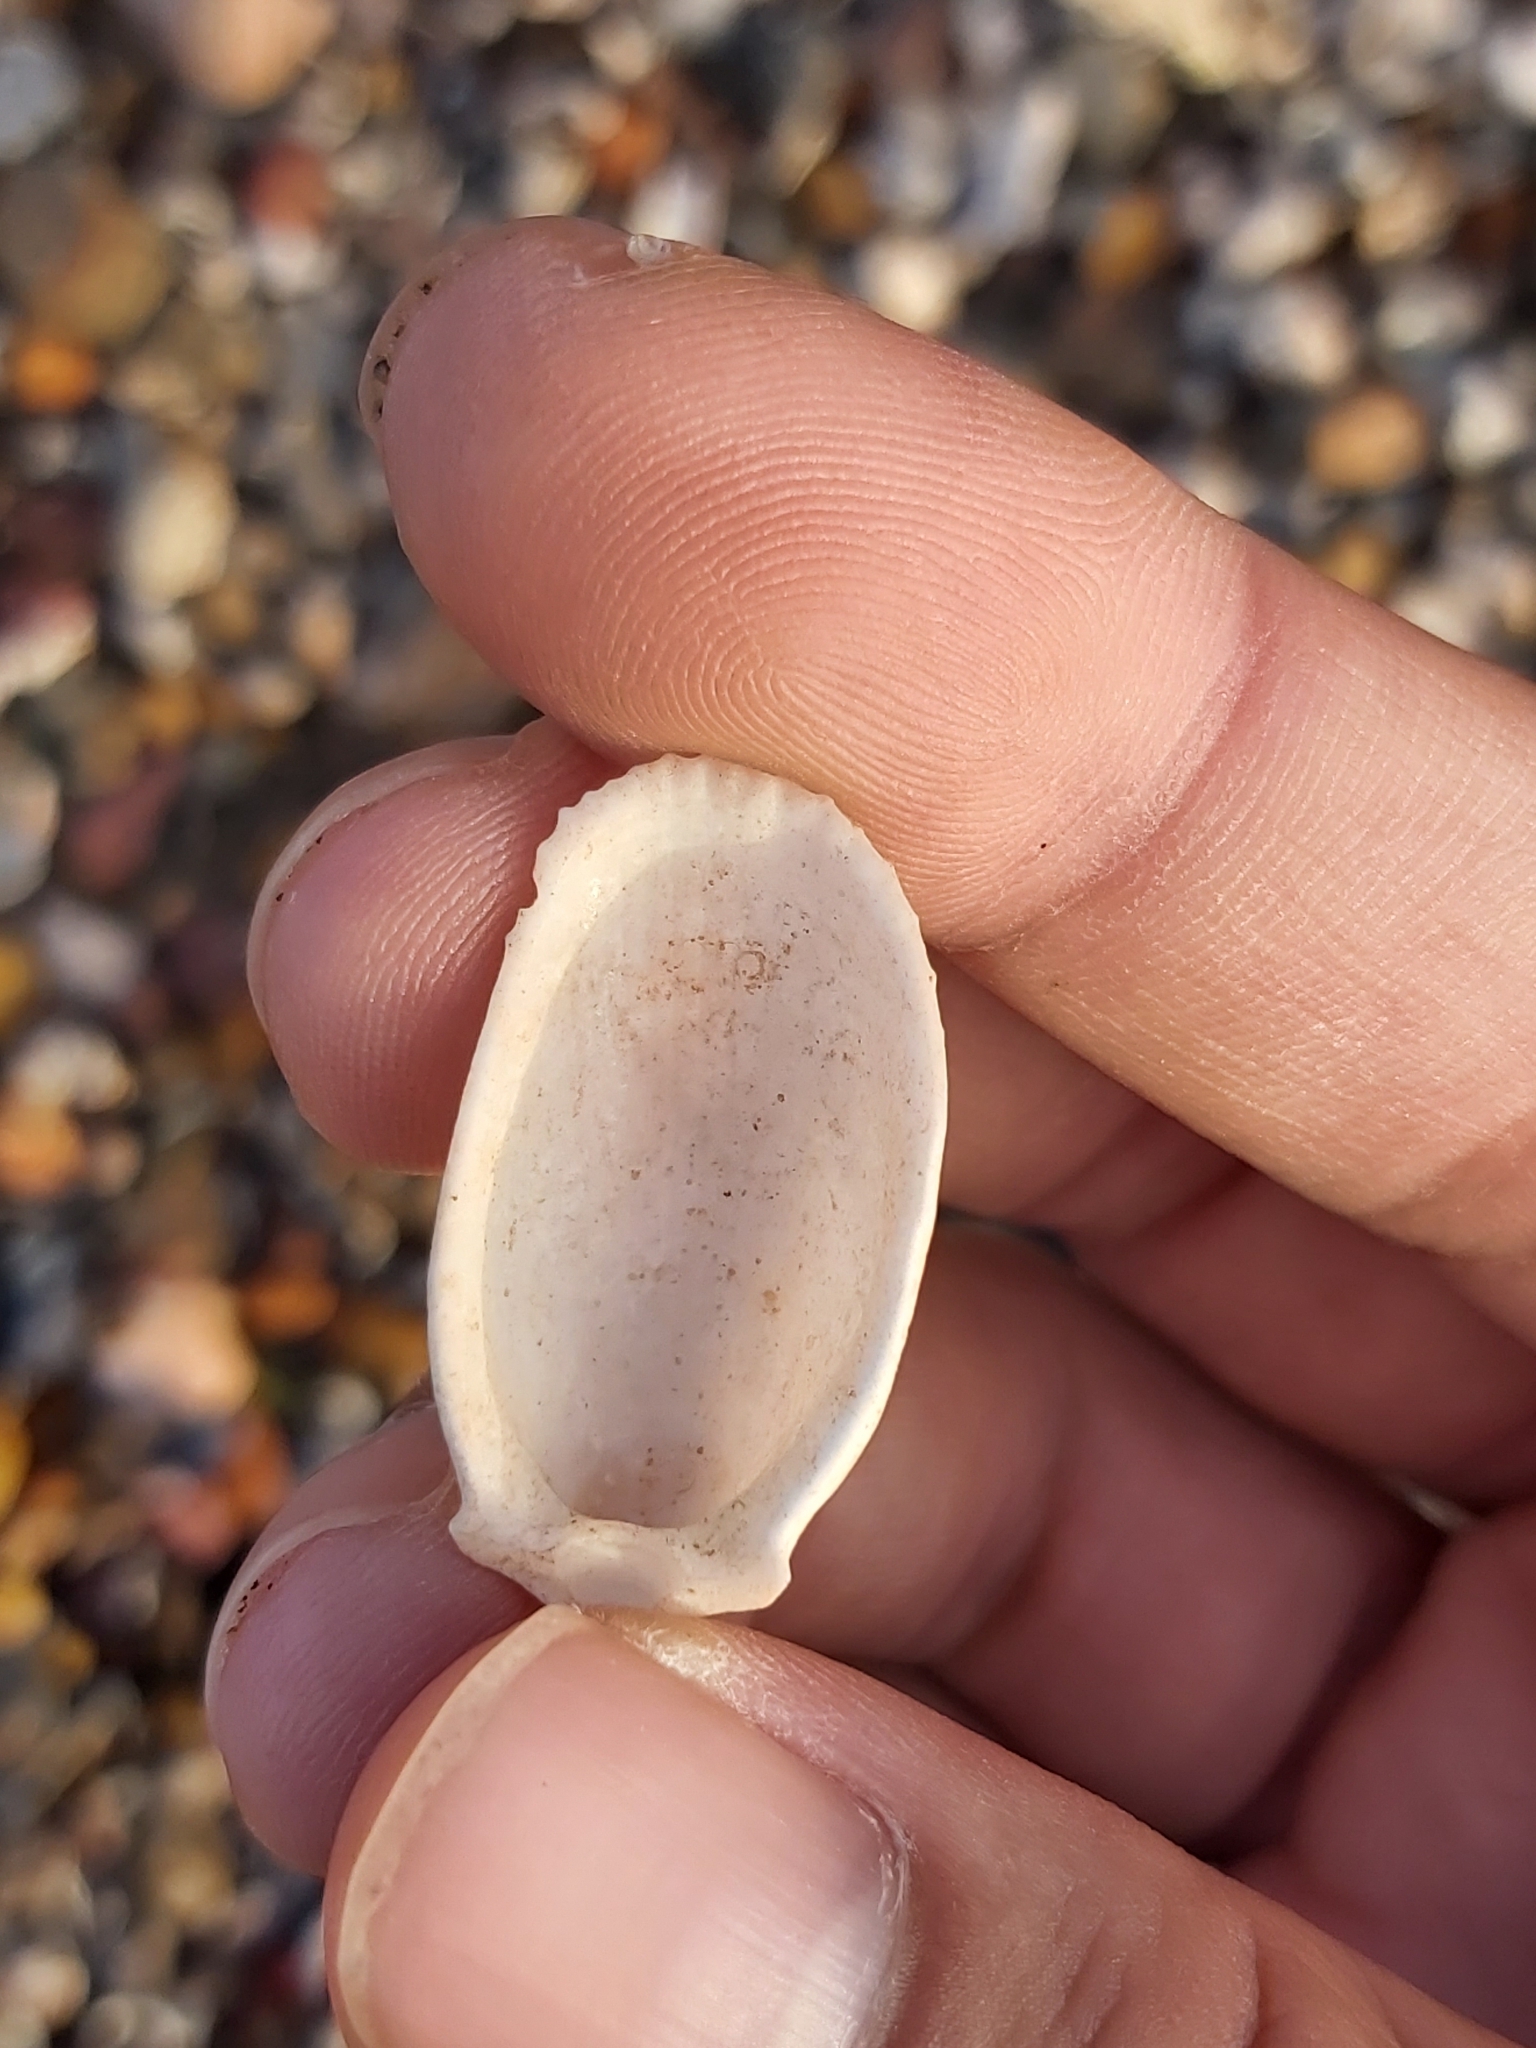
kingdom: Animalia
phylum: Mollusca
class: Bivalvia
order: Limida
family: Limidae
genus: Limatula
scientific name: Limatula strangei
